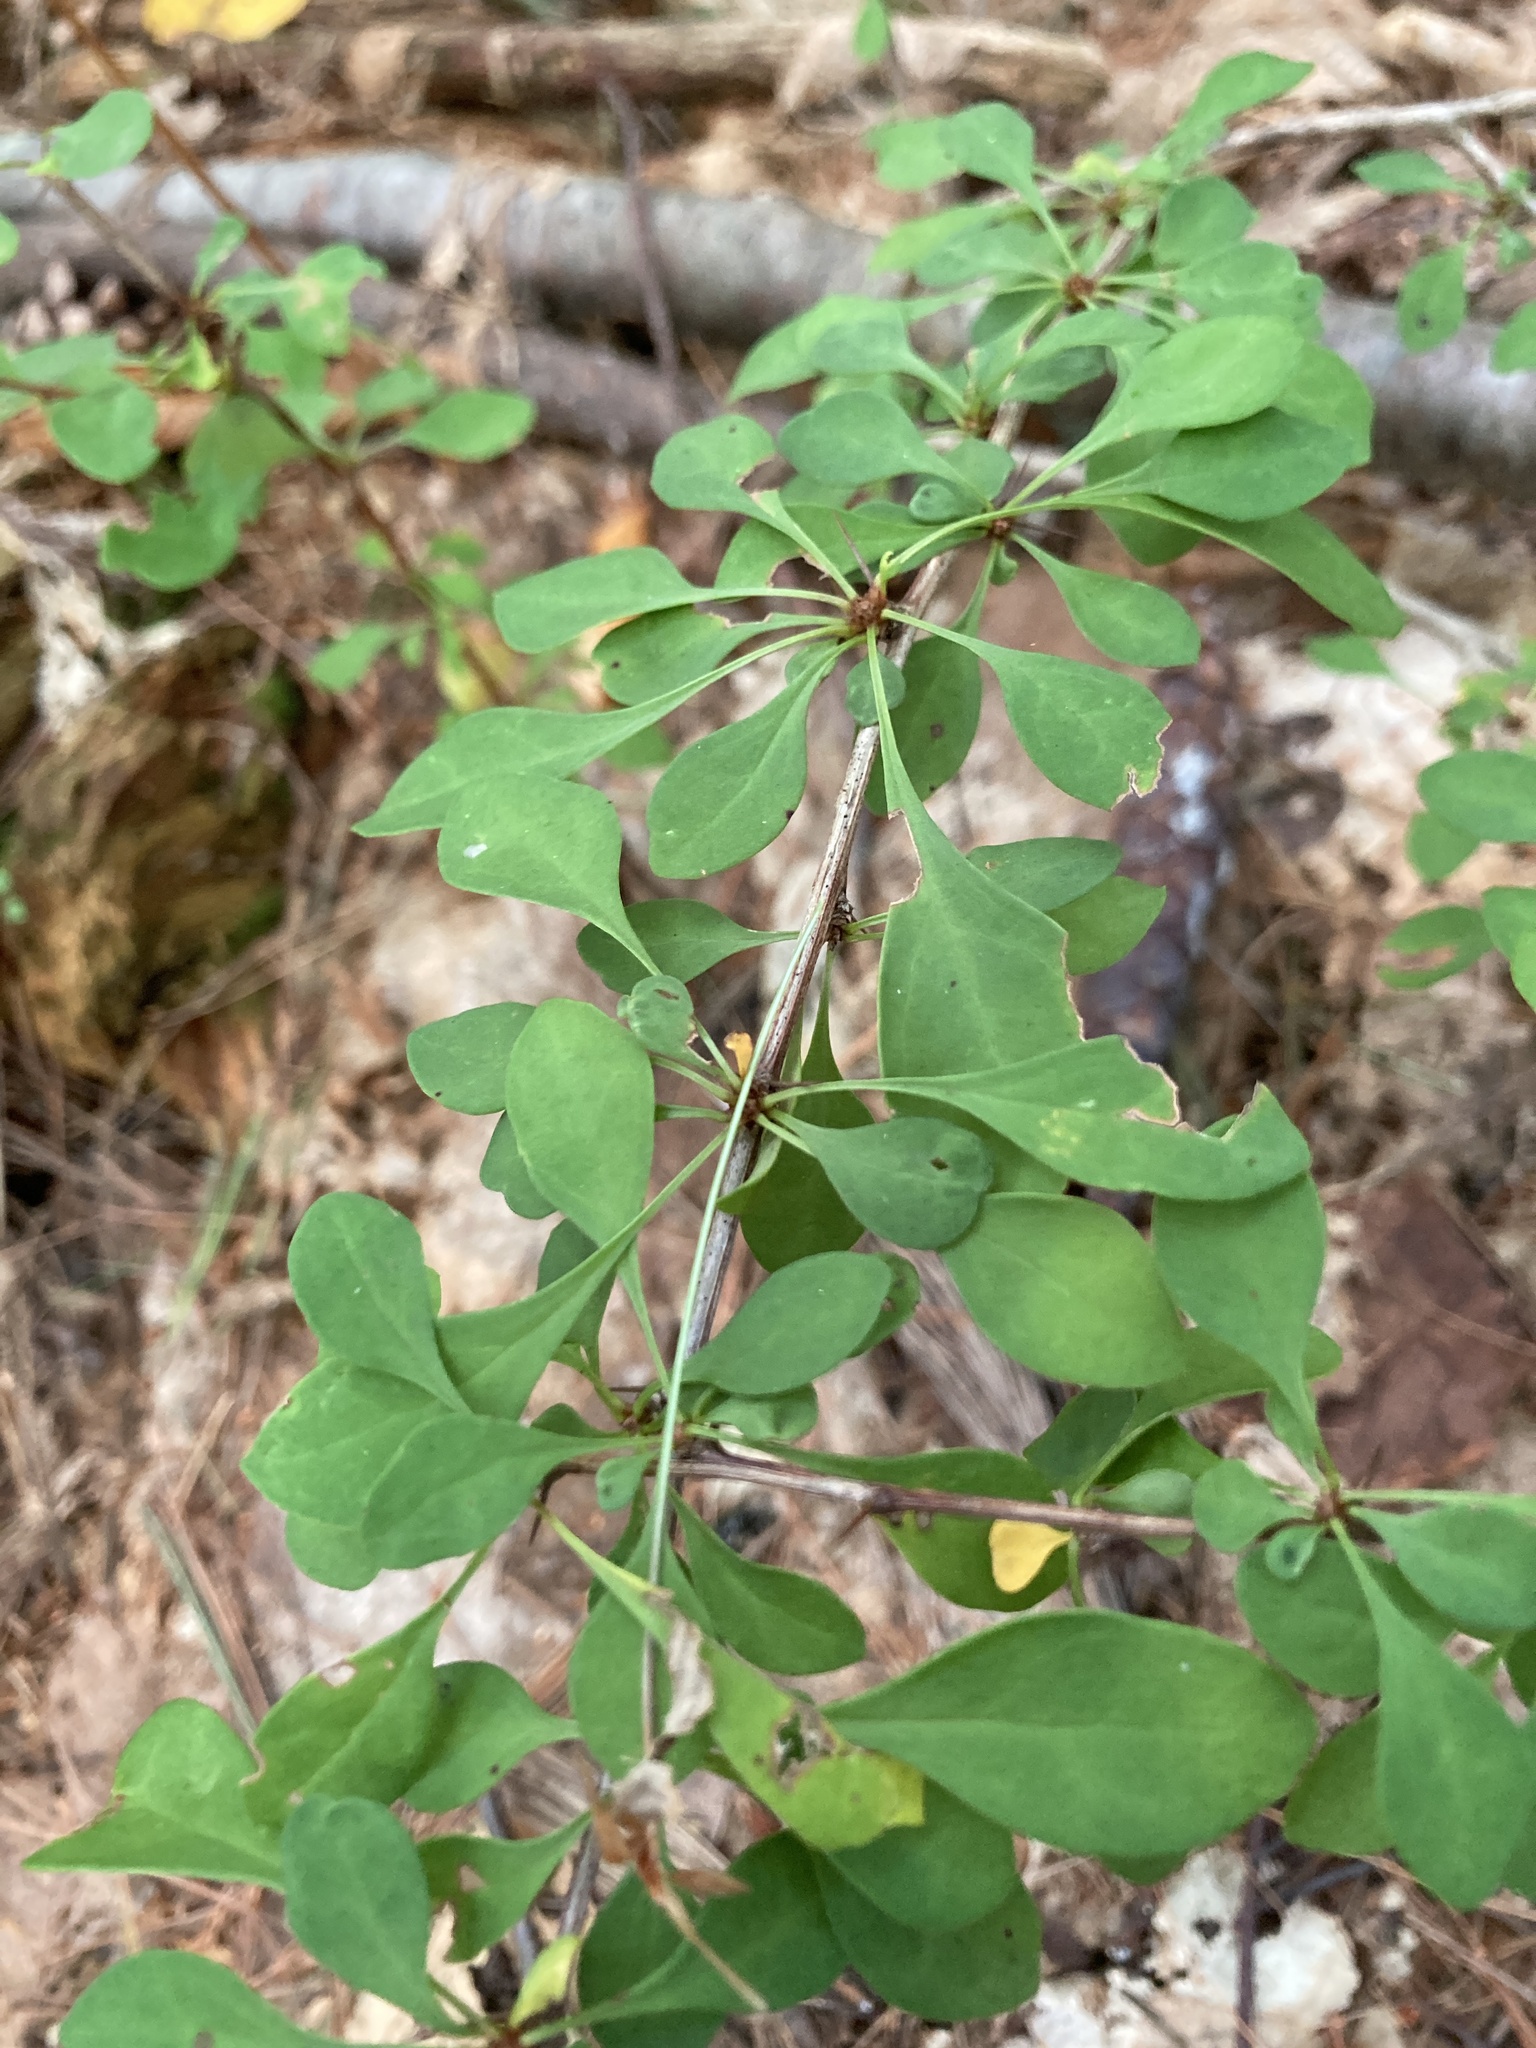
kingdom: Plantae
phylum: Tracheophyta
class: Magnoliopsida
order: Ranunculales
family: Berberidaceae
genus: Berberis
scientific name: Berberis thunbergii
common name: Japanese barberry
